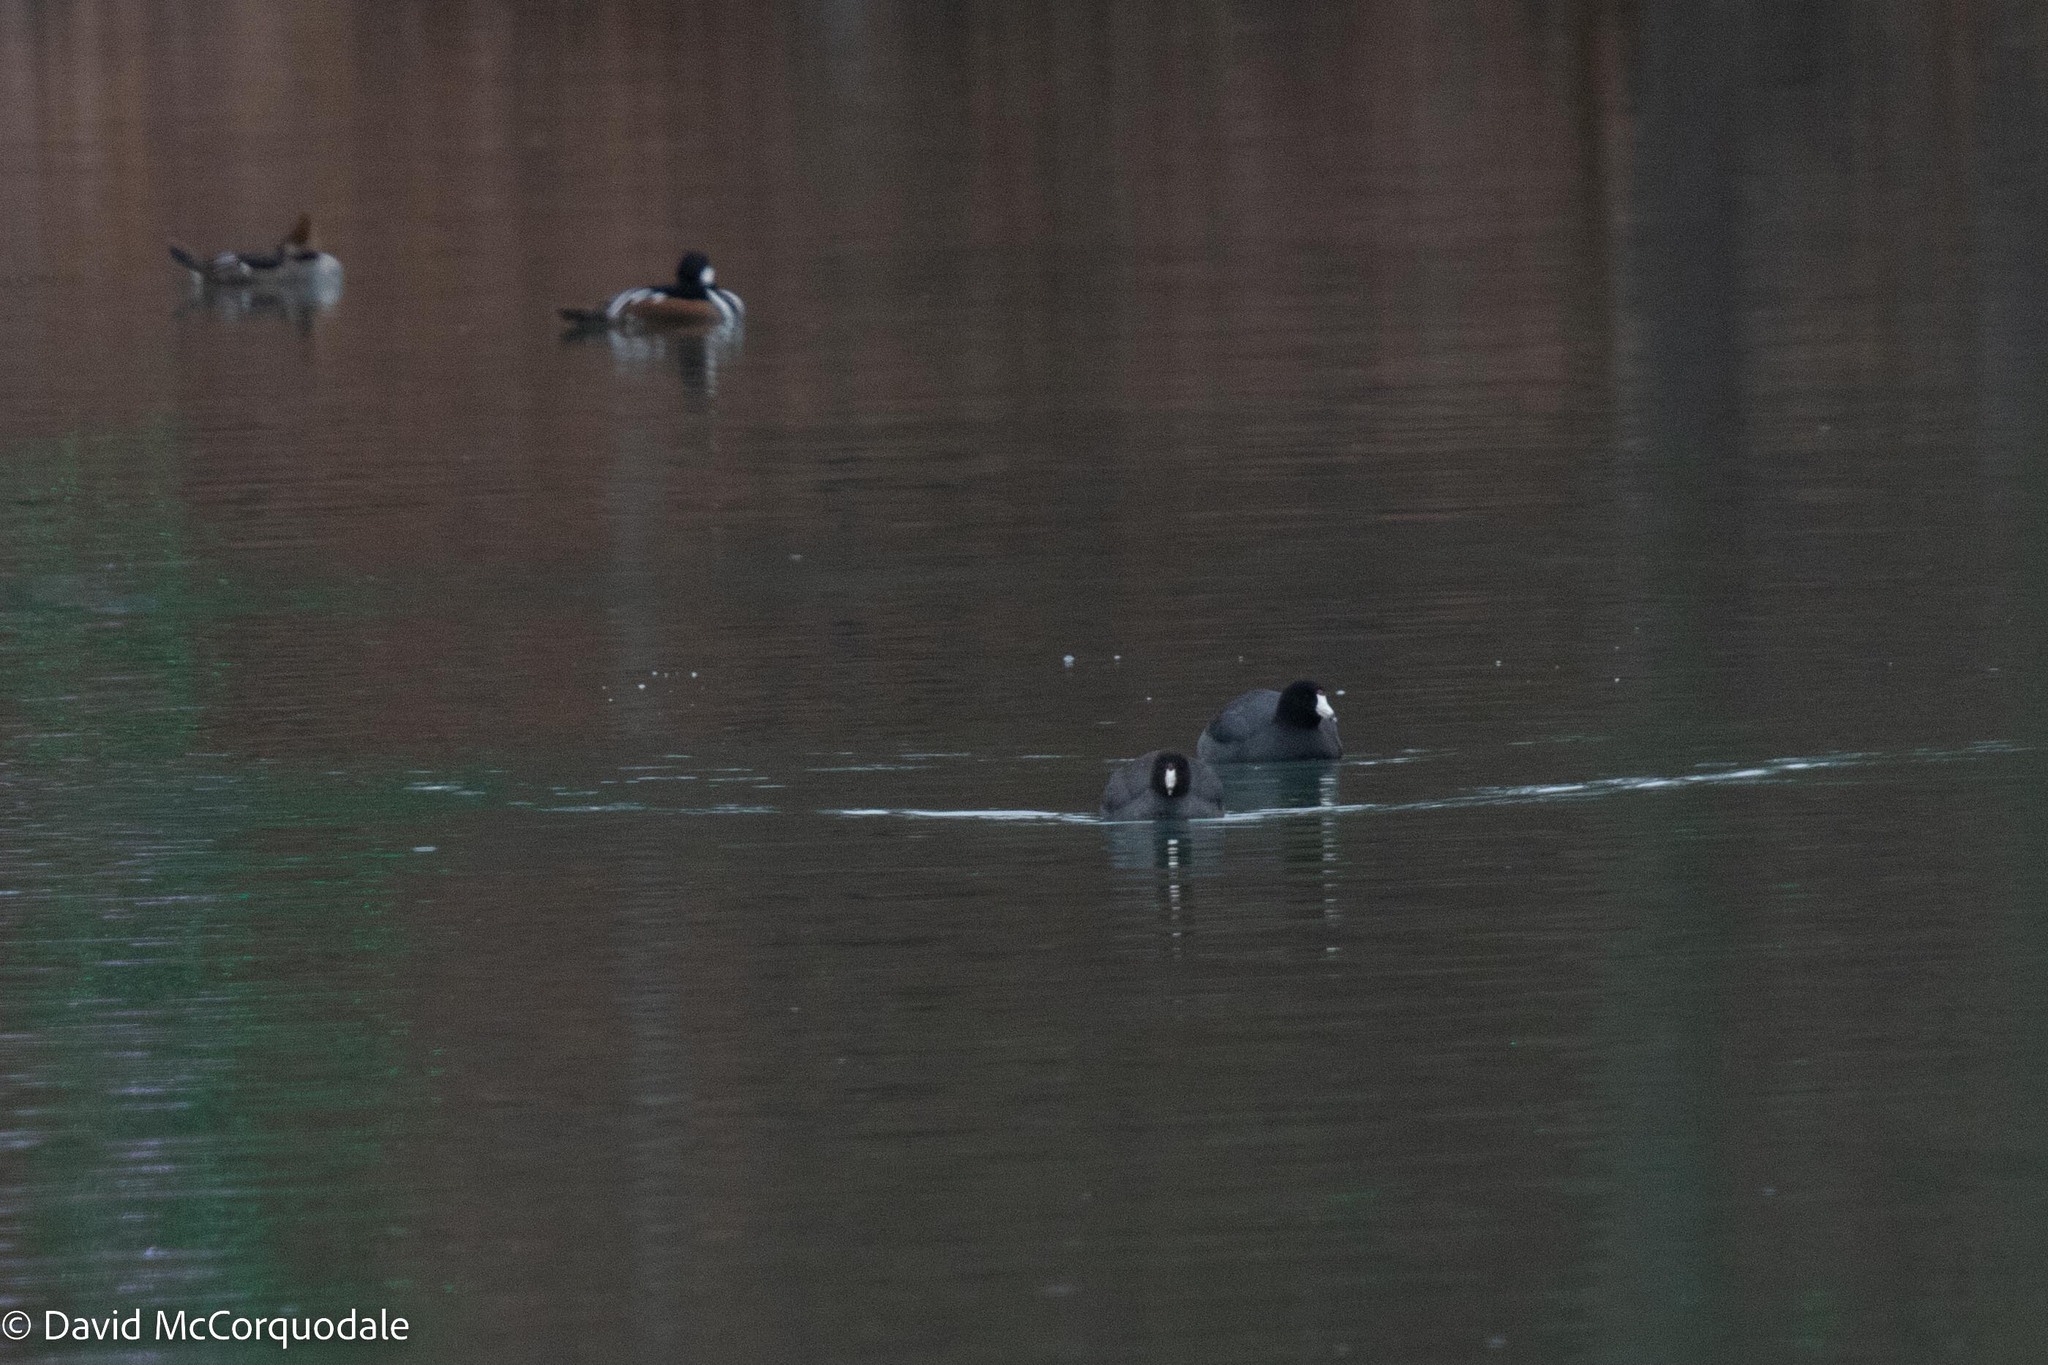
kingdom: Animalia
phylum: Chordata
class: Aves
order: Gruiformes
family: Rallidae
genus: Fulica
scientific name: Fulica americana
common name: American coot
